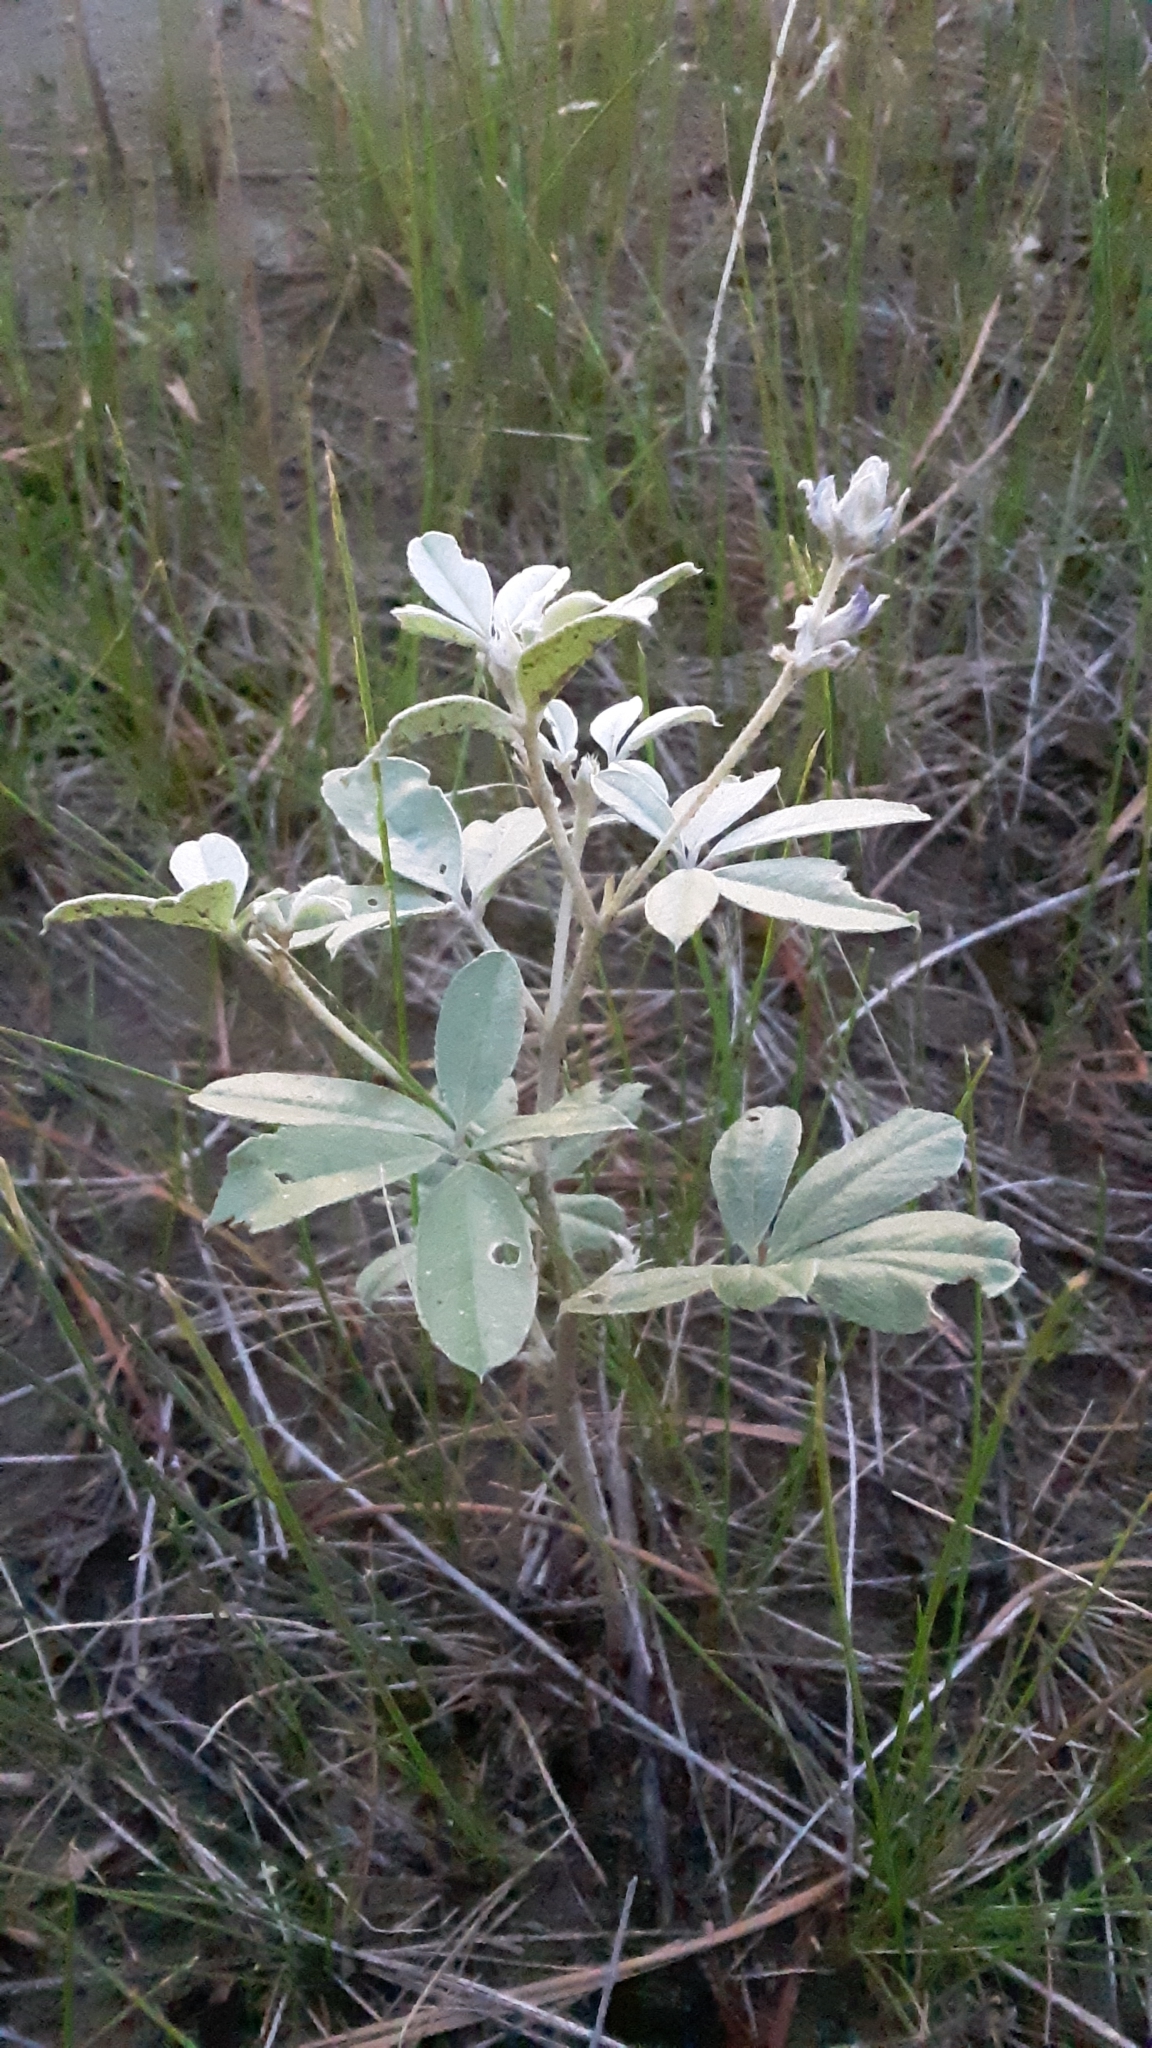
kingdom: Plantae
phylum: Tracheophyta
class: Magnoliopsida
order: Fabales
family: Fabaceae
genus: Pediomelum
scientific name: Pediomelum argophyllum
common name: Silver-leaved indian breadroot
